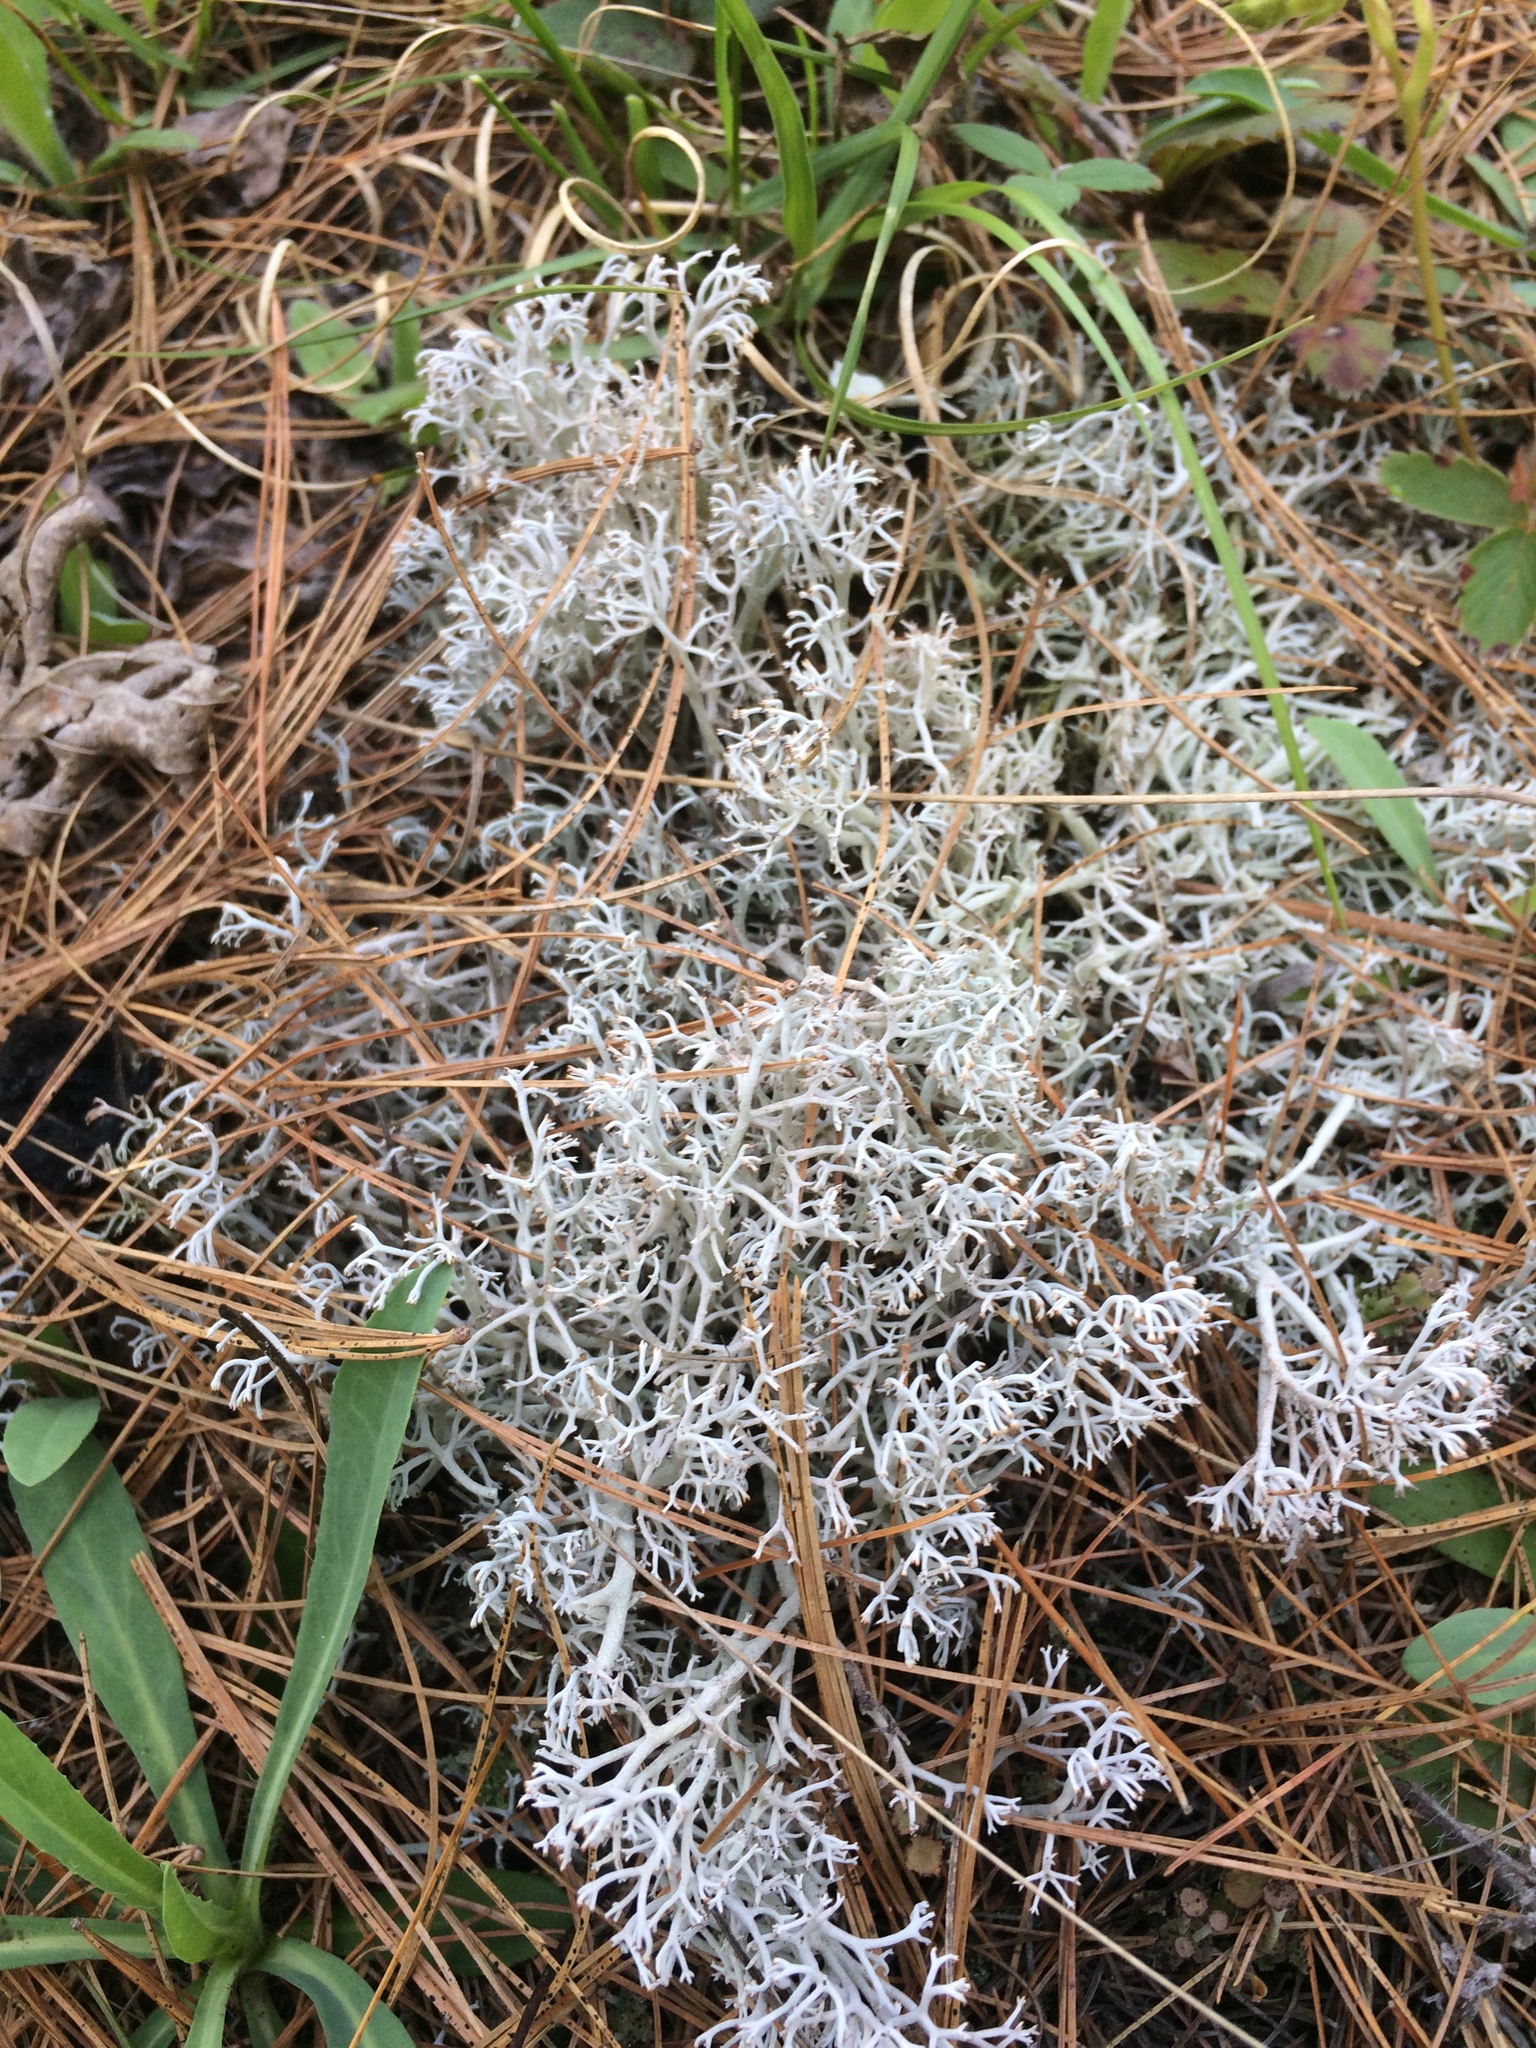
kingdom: Fungi
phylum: Ascomycota
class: Lecanoromycetes
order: Lecanorales
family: Cladoniaceae
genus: Cladonia
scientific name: Cladonia rangiferina
